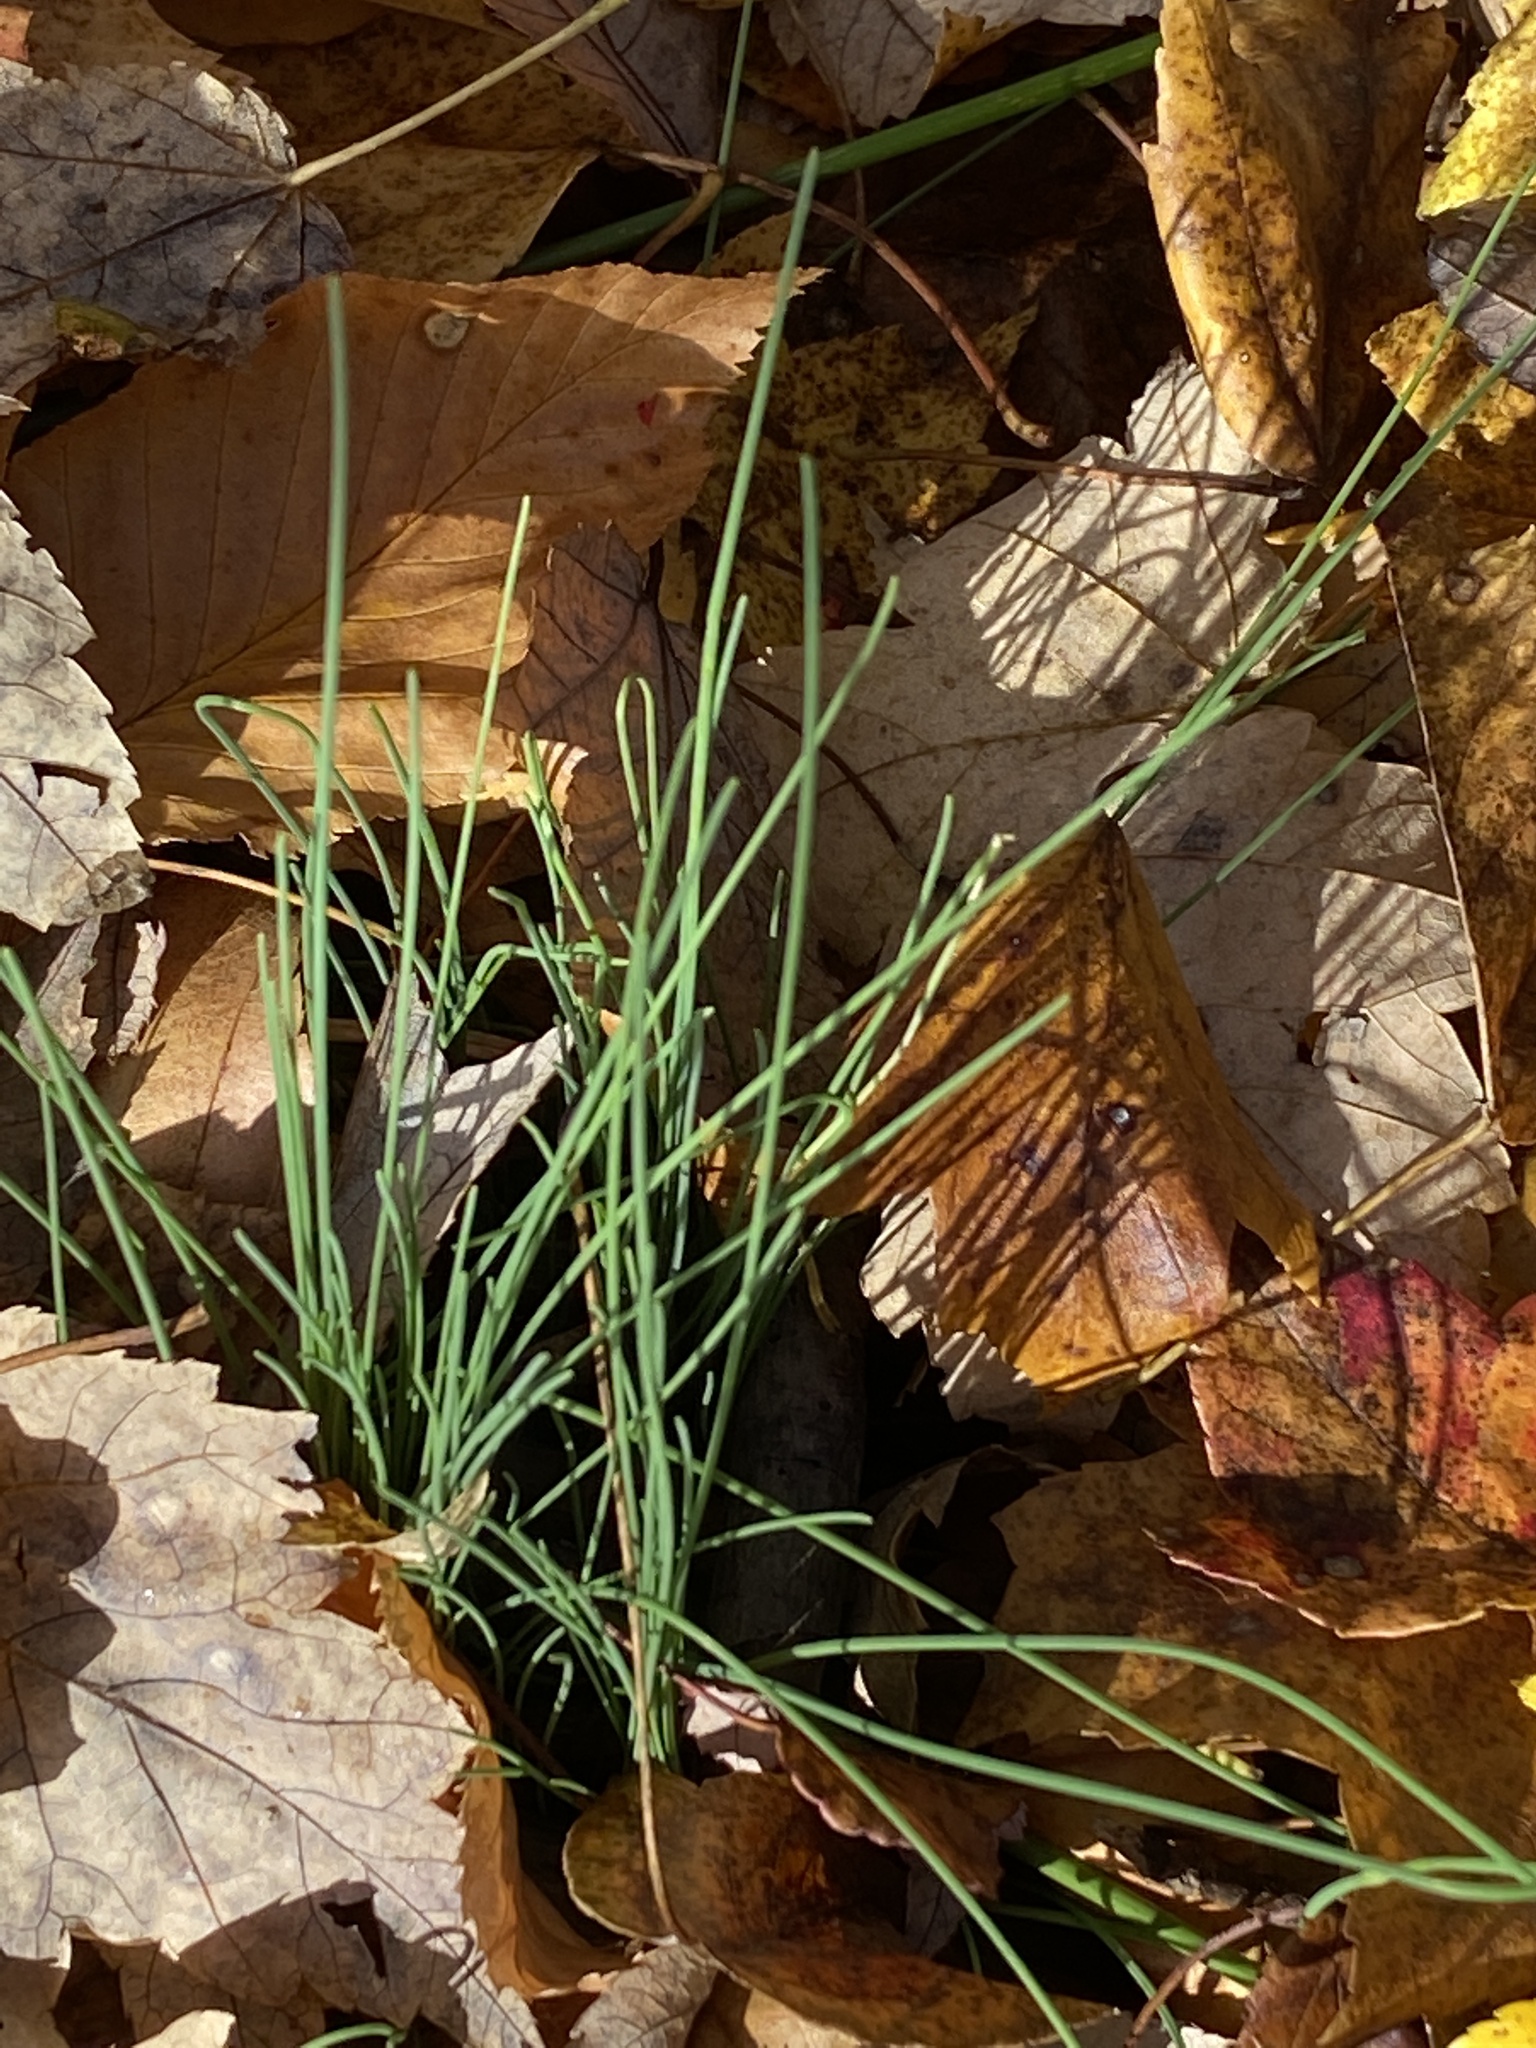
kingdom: Plantae
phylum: Tracheophyta
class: Liliopsida
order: Asparagales
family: Amaryllidaceae
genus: Allium
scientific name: Allium vineale
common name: Crow garlic
